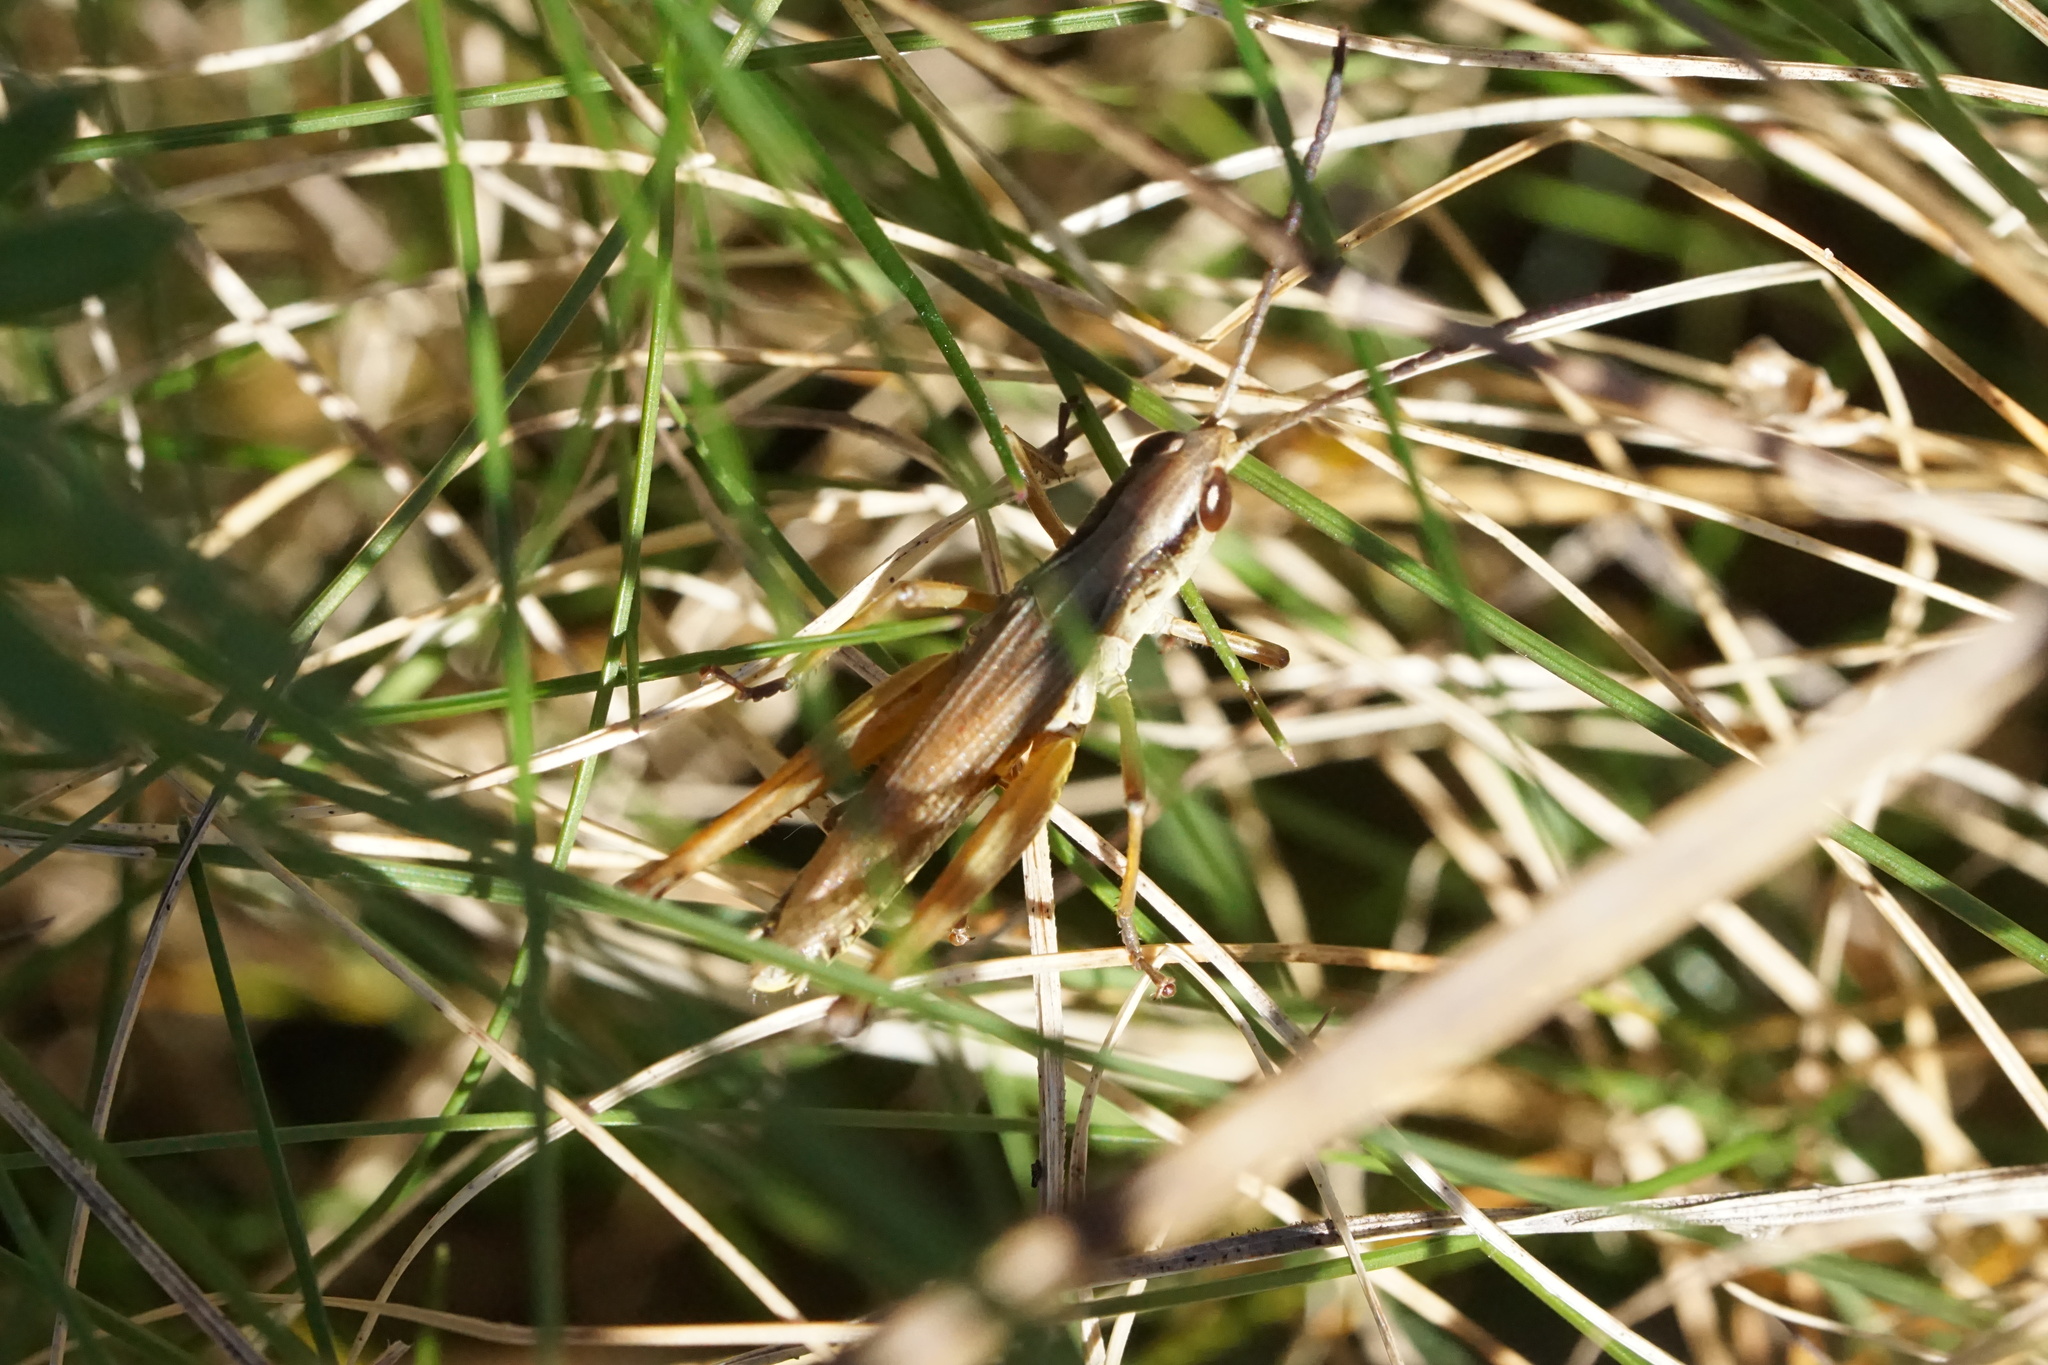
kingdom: Animalia
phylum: Arthropoda
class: Insecta
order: Orthoptera
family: Acrididae
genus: Pseudochorthippus
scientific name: Pseudochorthippus curtipennis
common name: Marsh meadow grasshopper
